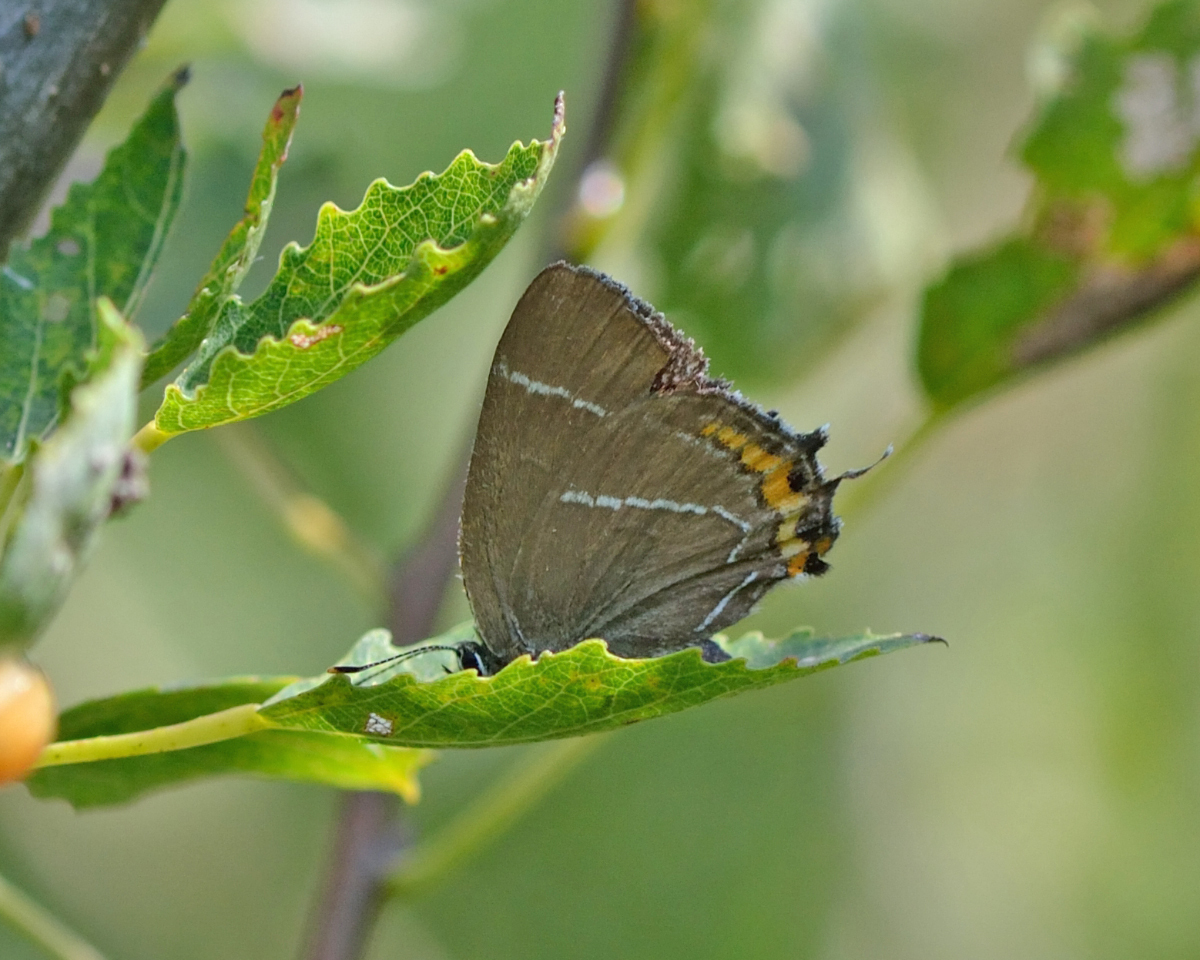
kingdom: Animalia
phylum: Arthropoda
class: Insecta
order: Lepidoptera
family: Lycaenidae
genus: Satyrium
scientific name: Satyrium w-album
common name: White-letter hairstreak
